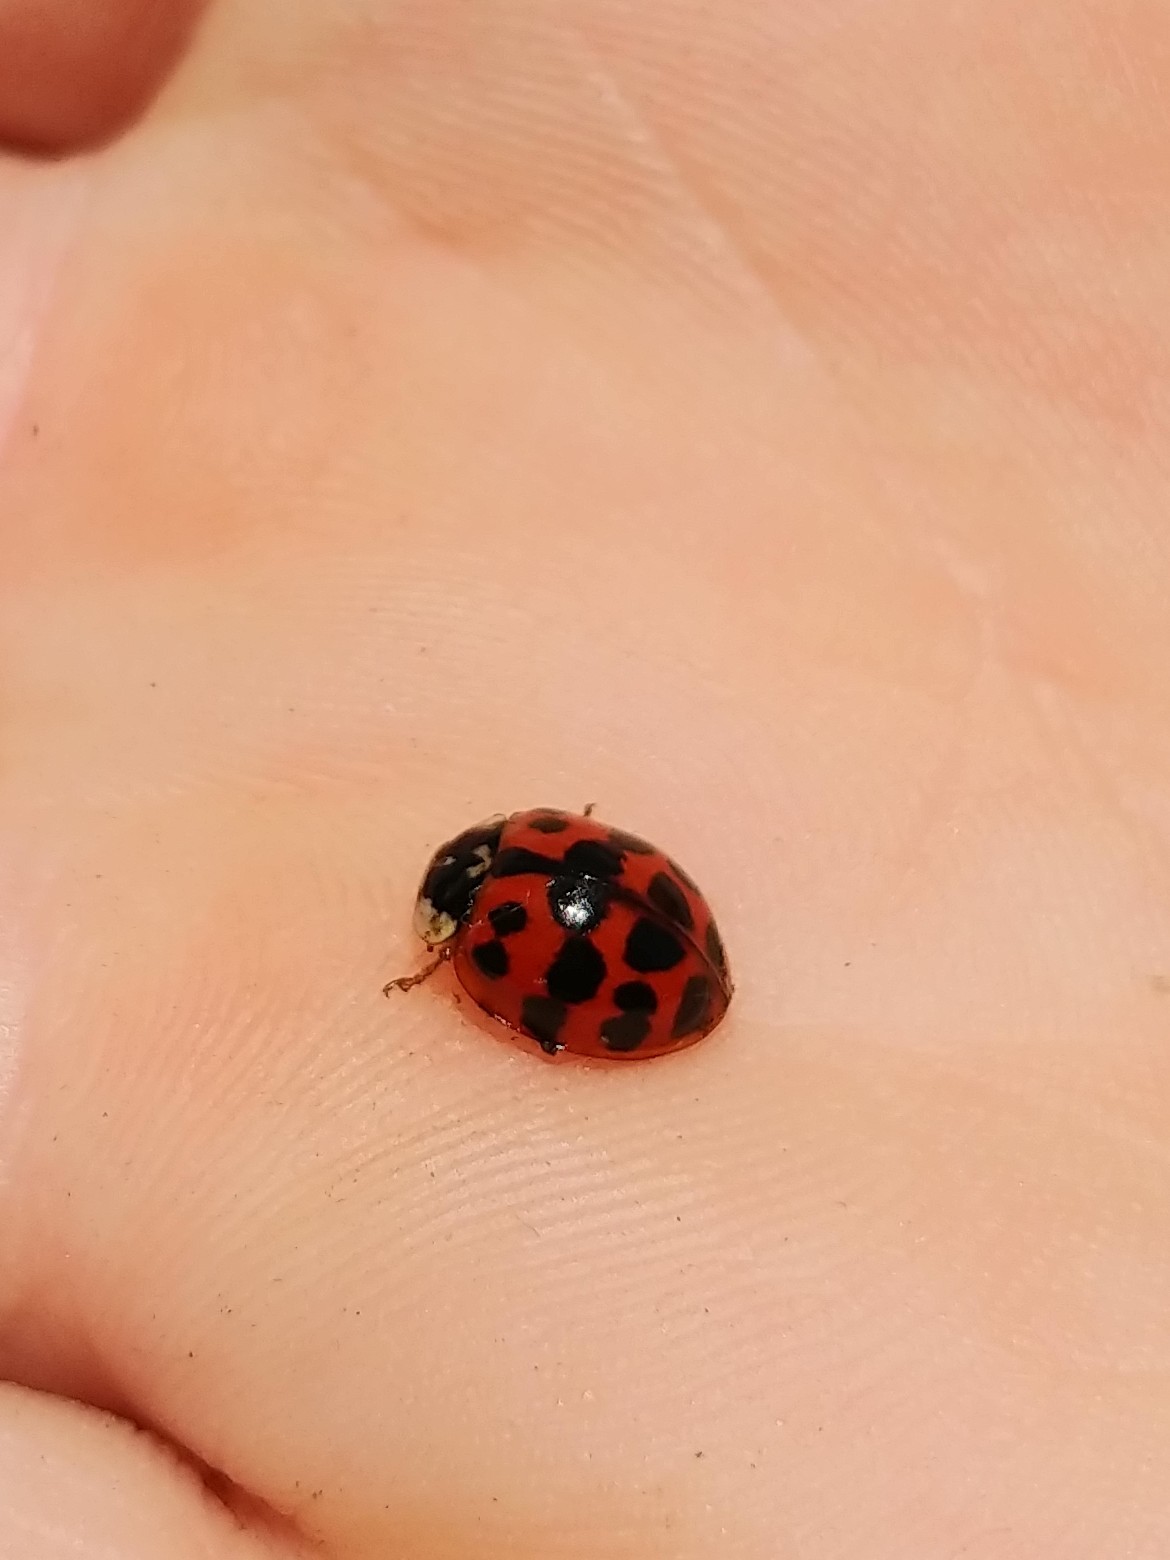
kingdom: Animalia
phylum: Arthropoda
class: Insecta
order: Coleoptera
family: Coccinellidae
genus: Harmonia
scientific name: Harmonia axyridis
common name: Harlequin ladybird
